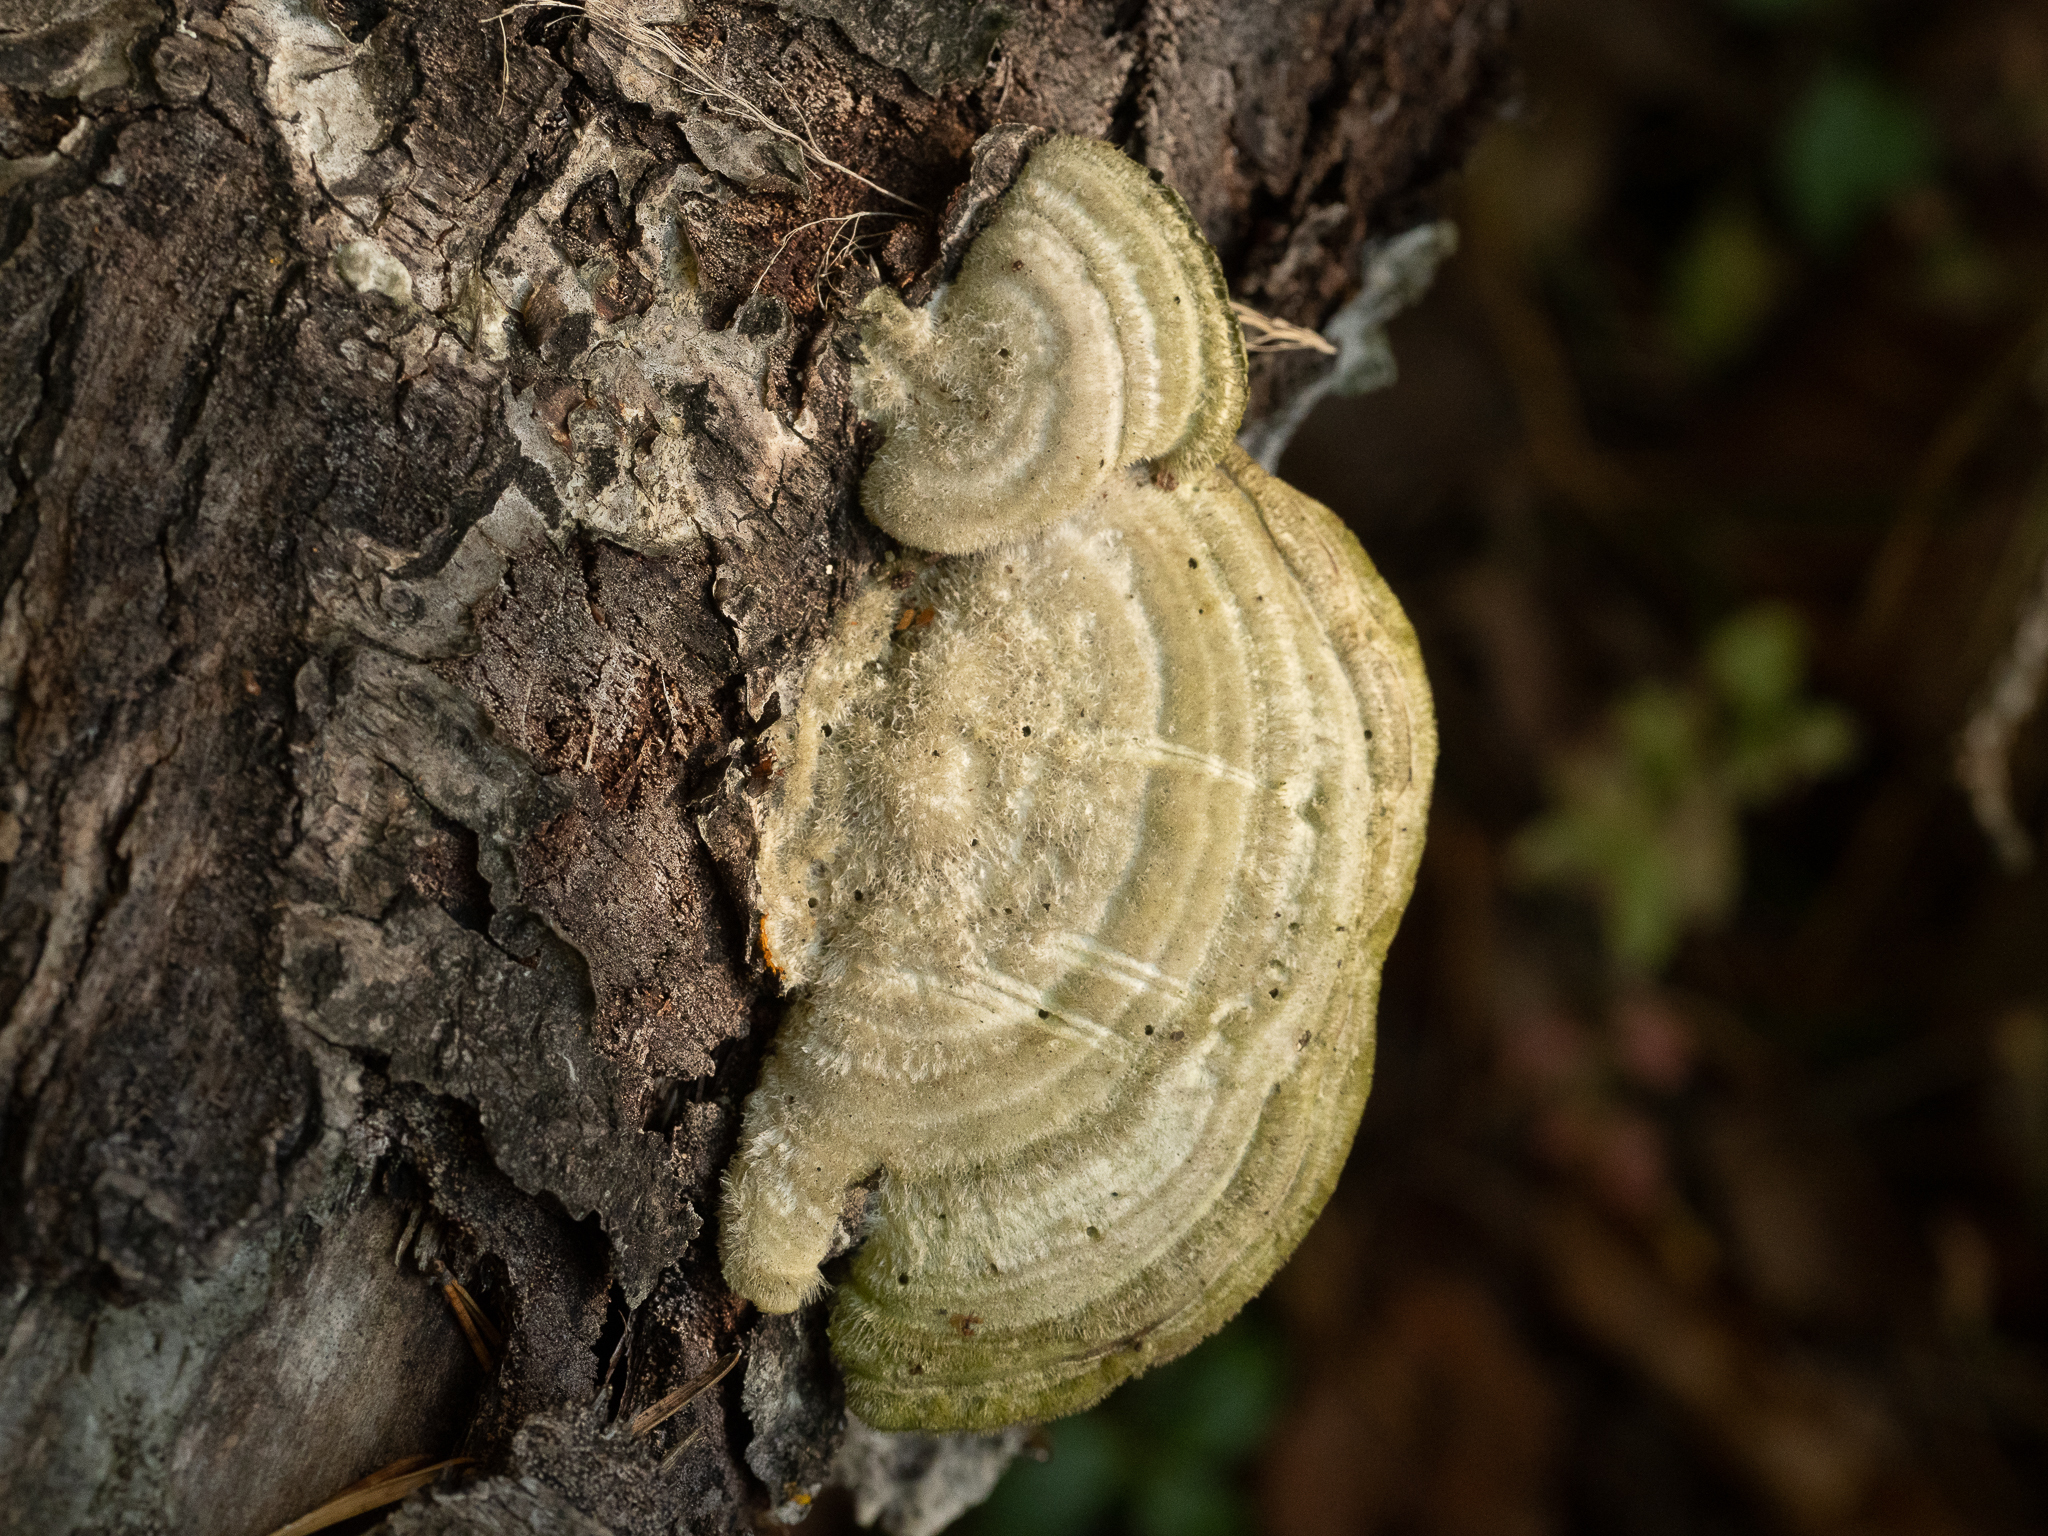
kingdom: Fungi
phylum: Basidiomycota
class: Agaricomycetes
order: Polyporales
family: Polyporaceae
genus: Trametes
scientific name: Trametes hirsuta
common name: Hairy bracket
